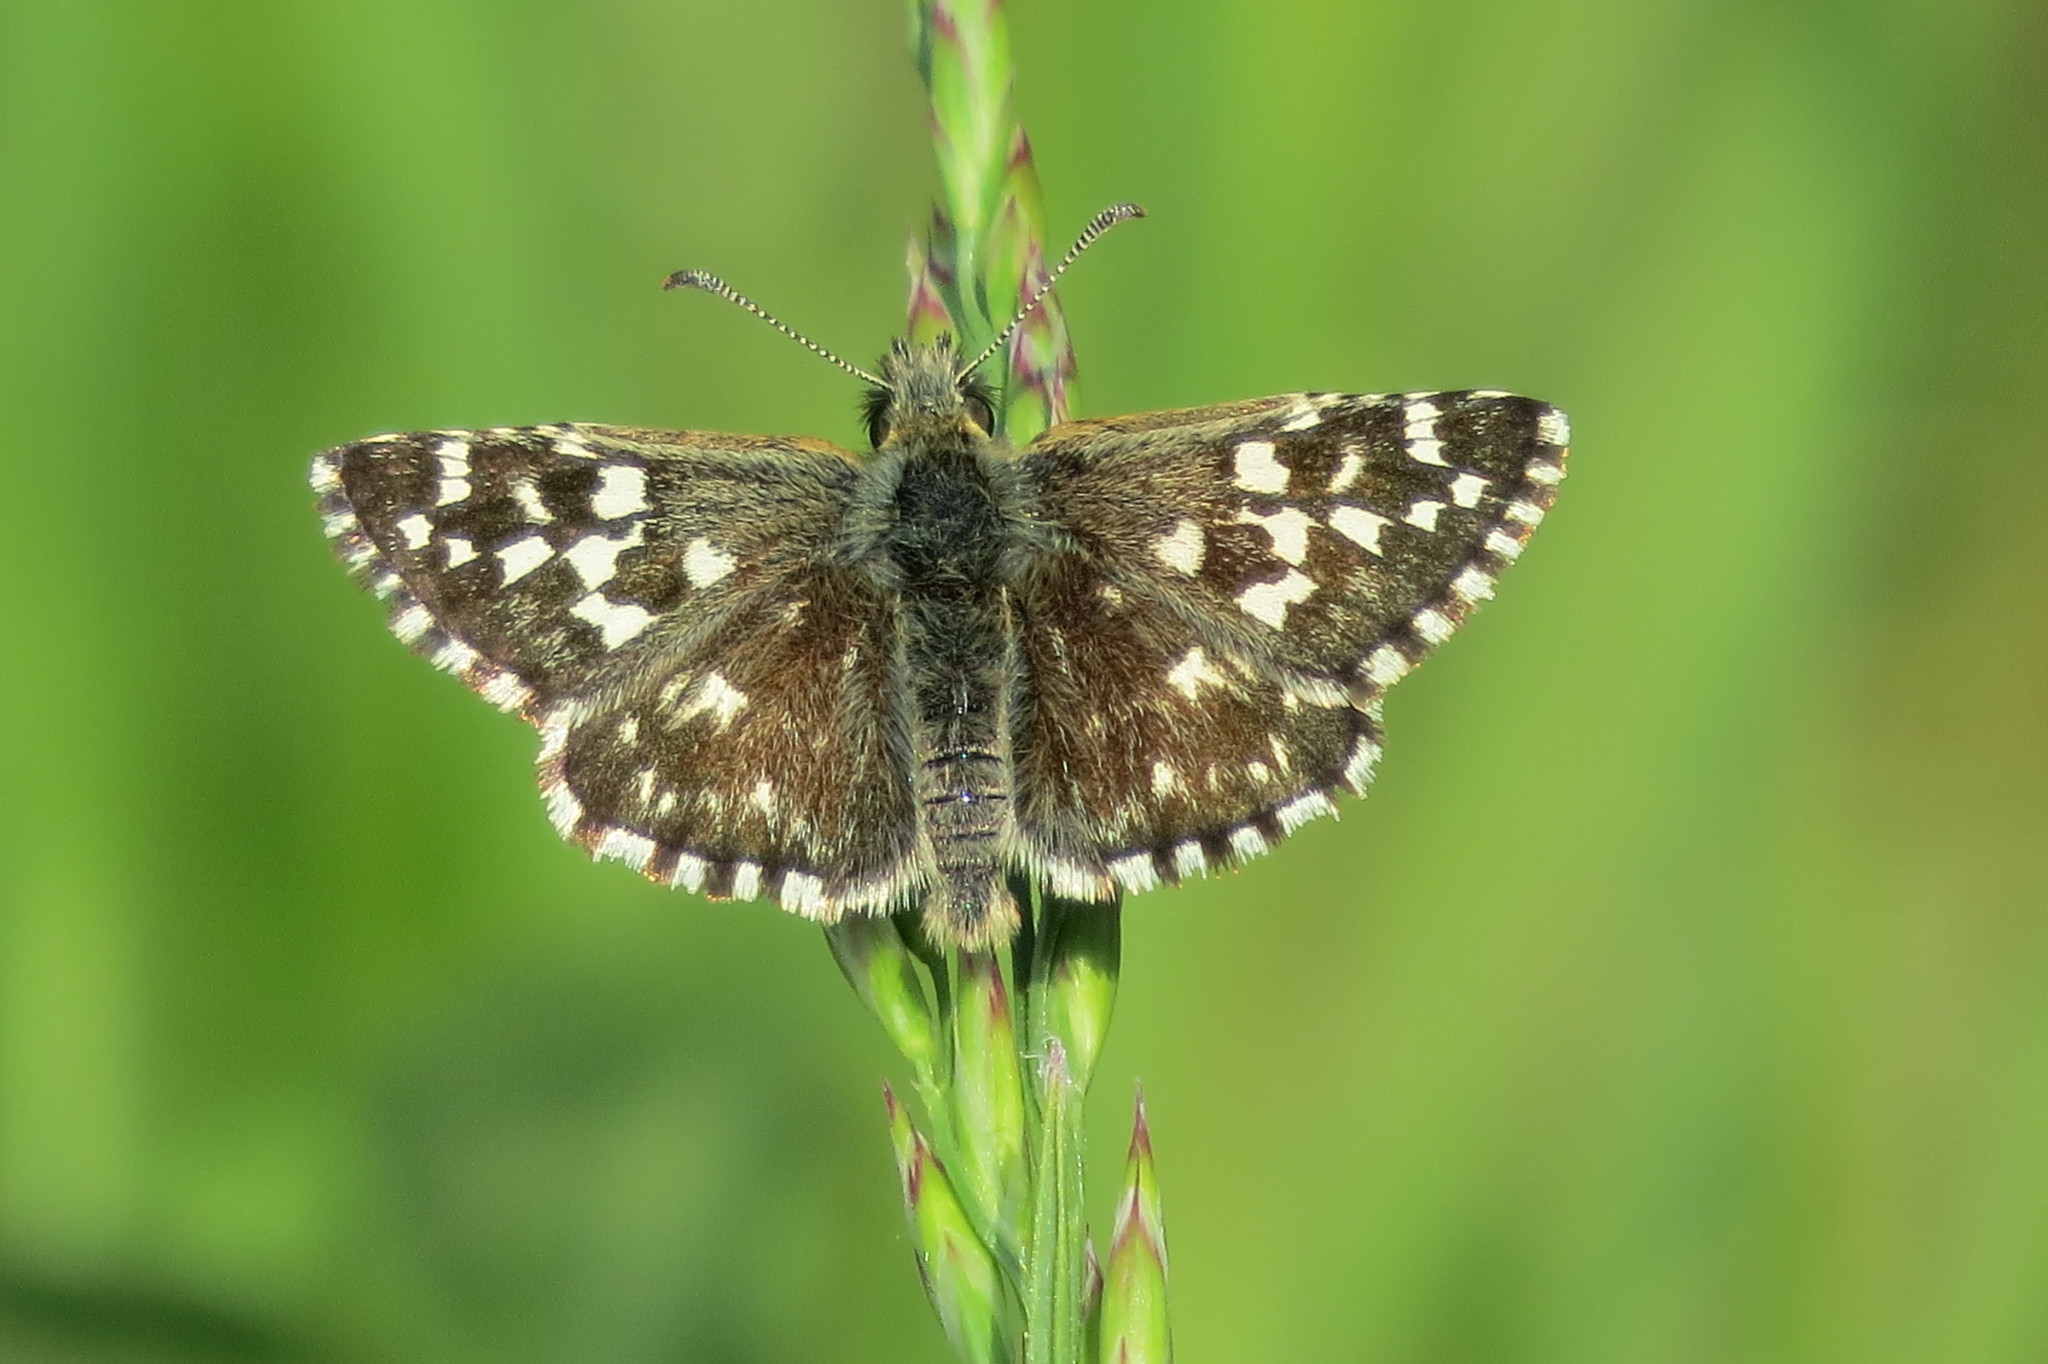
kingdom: Animalia
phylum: Arthropoda
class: Insecta
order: Lepidoptera
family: Hesperiidae
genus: Pyrgus
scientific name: Pyrgus malvoides
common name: Southern grizzled skipper
